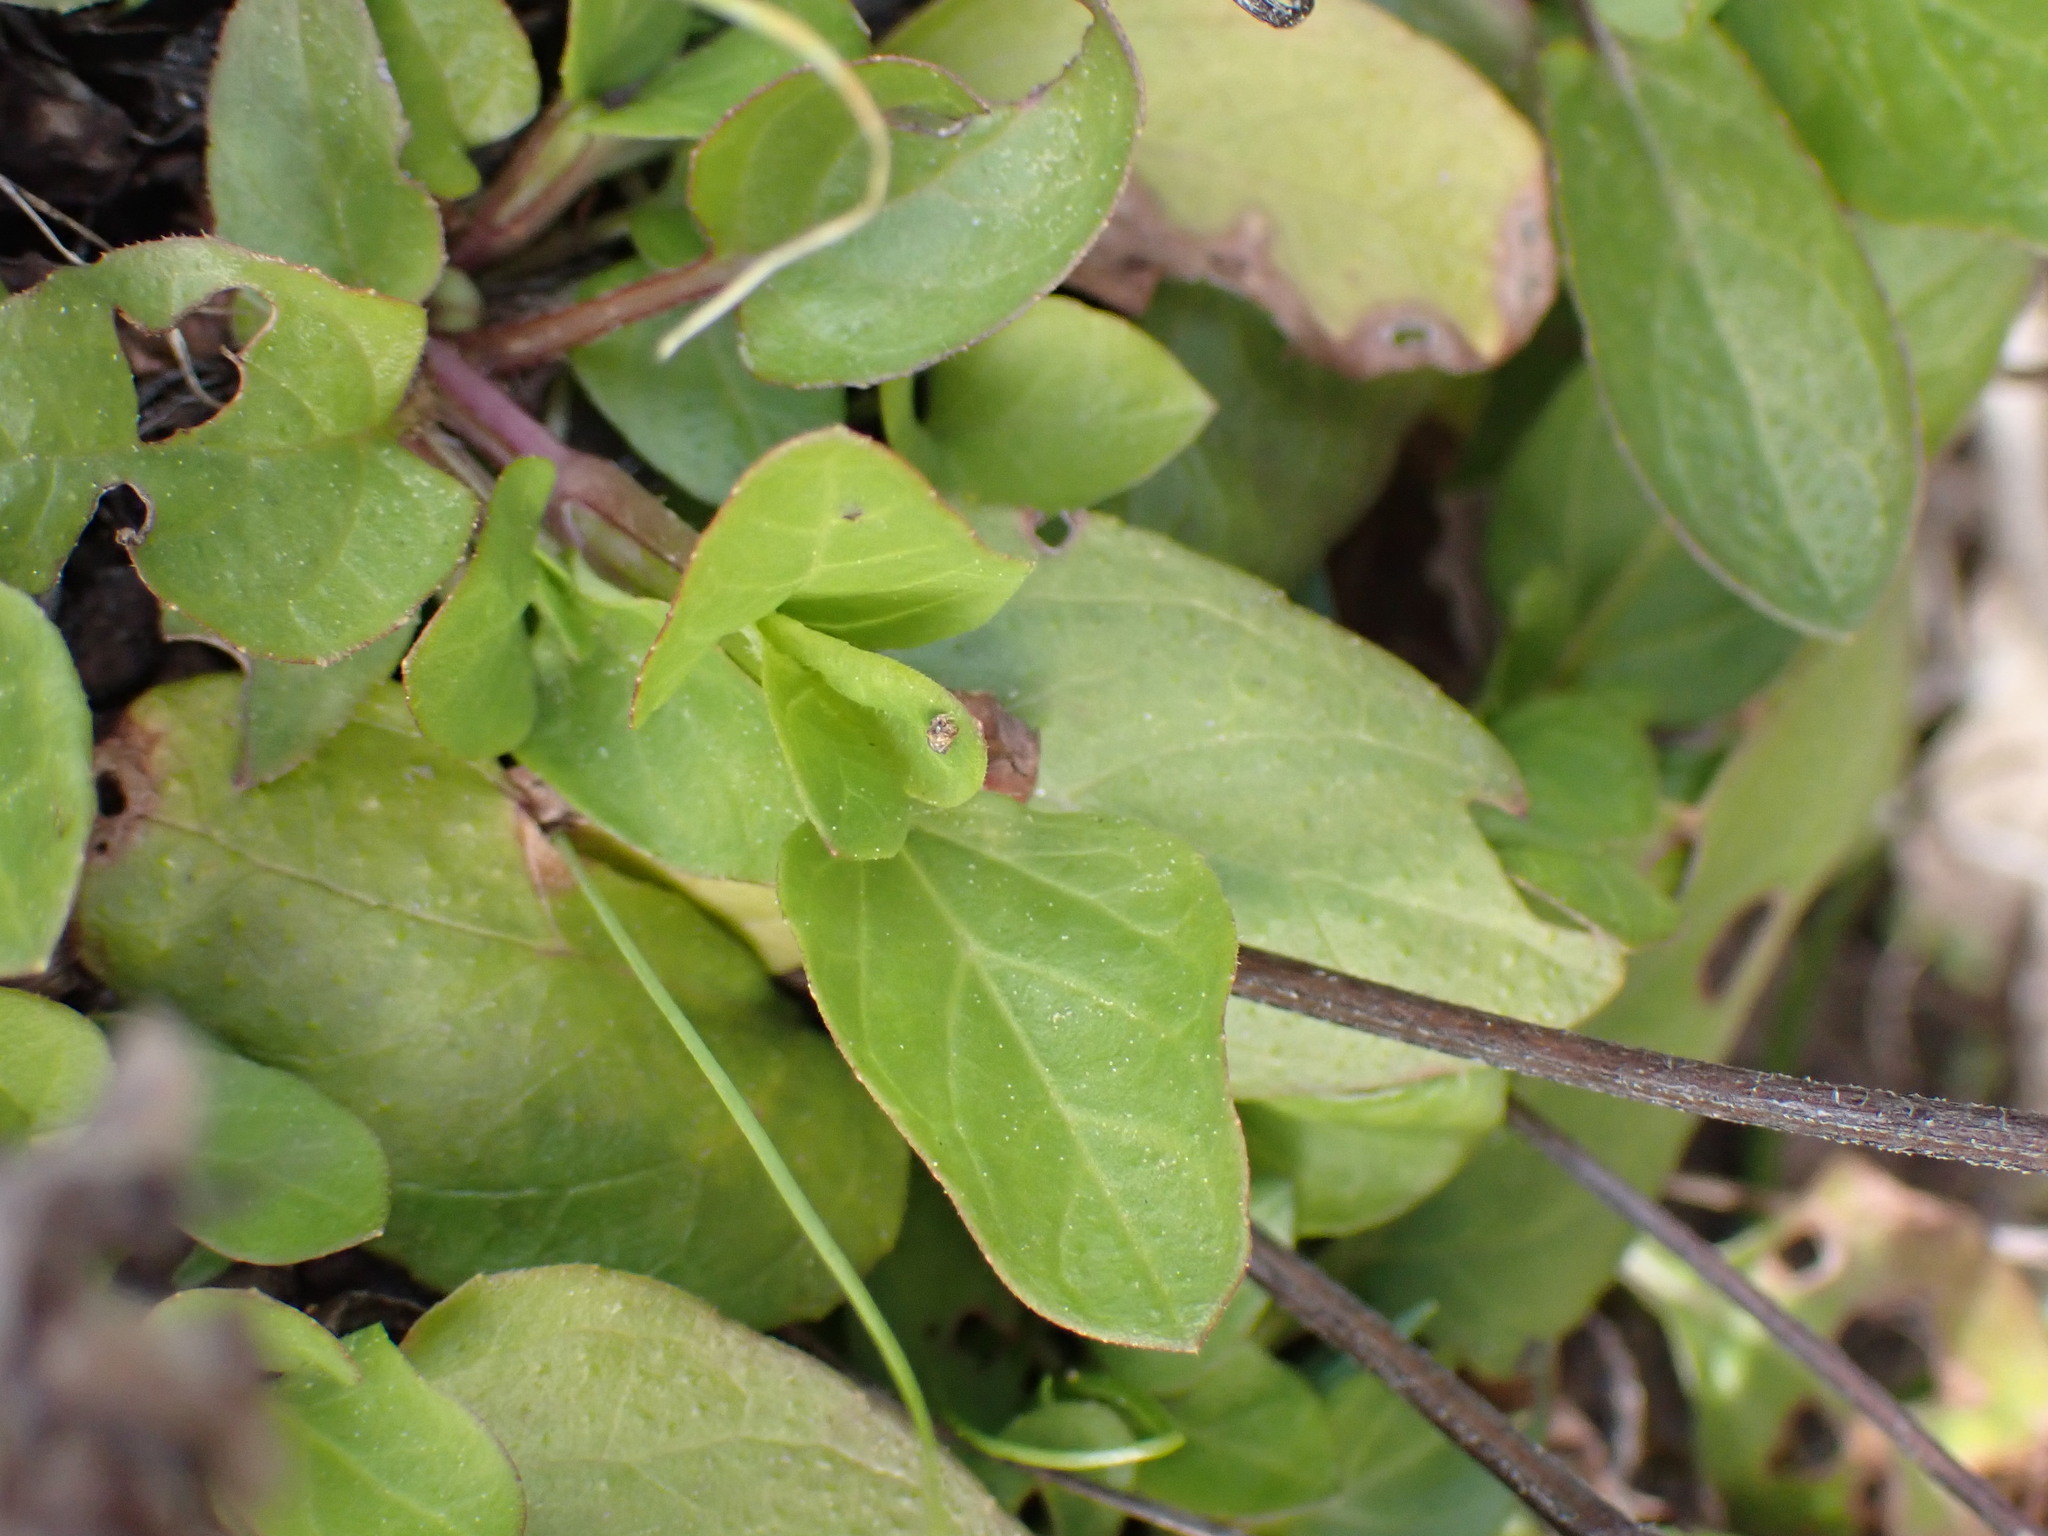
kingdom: Plantae
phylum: Tracheophyta
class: Magnoliopsida
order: Lamiales
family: Lamiaceae
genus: Prunella
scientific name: Prunella vulgaris
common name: Heal-all
